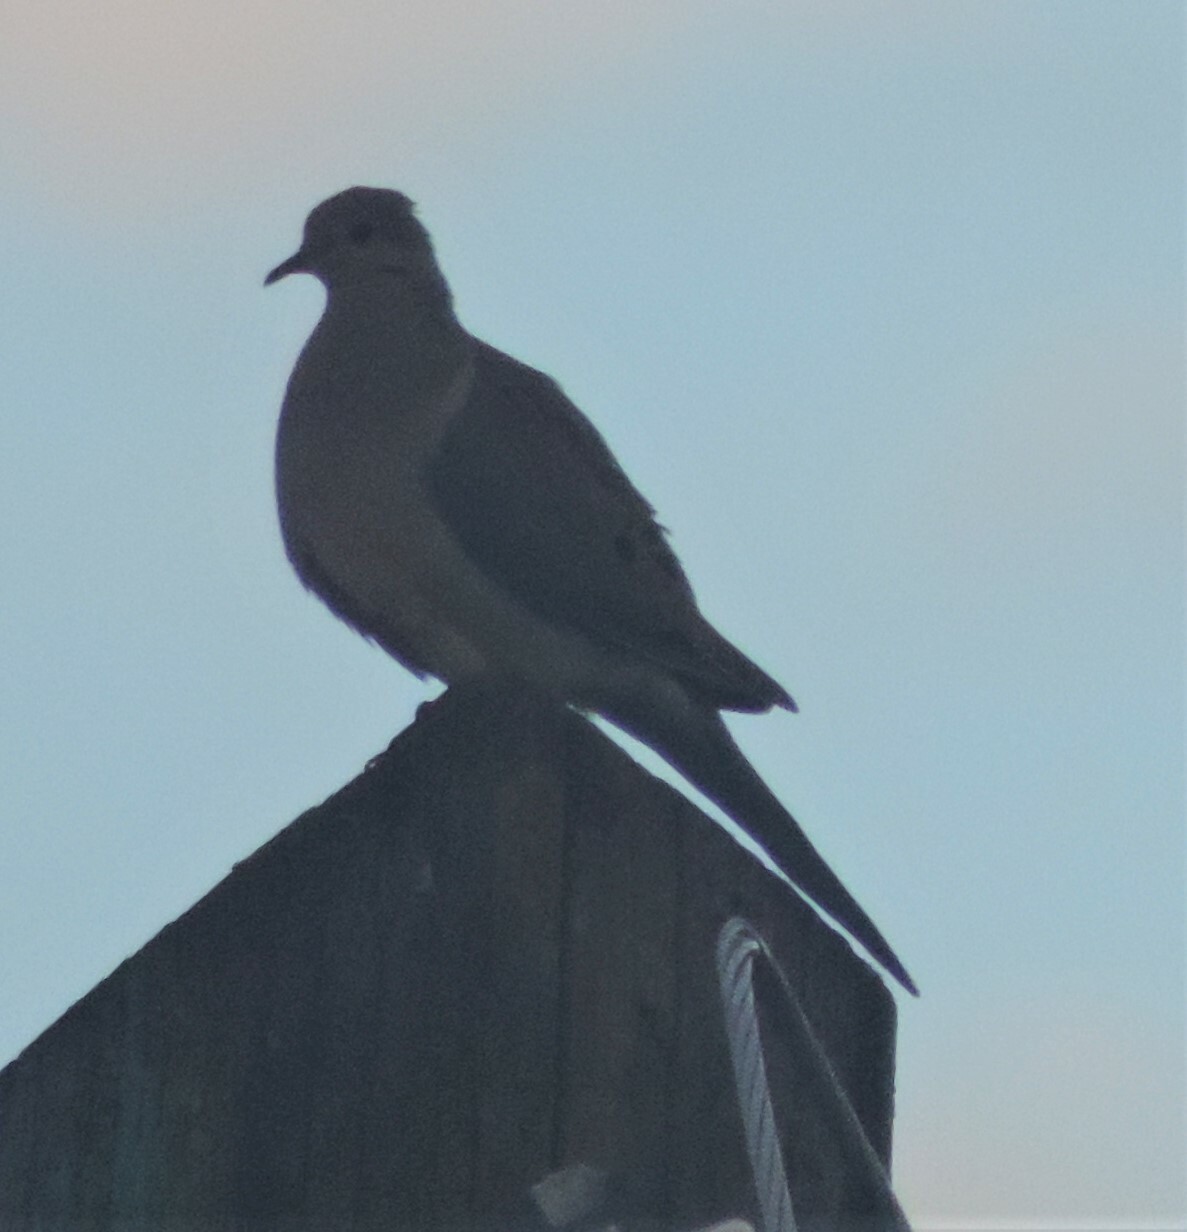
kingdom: Animalia
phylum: Chordata
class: Aves
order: Columbiformes
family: Columbidae
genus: Zenaida
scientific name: Zenaida macroura
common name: Mourning dove
